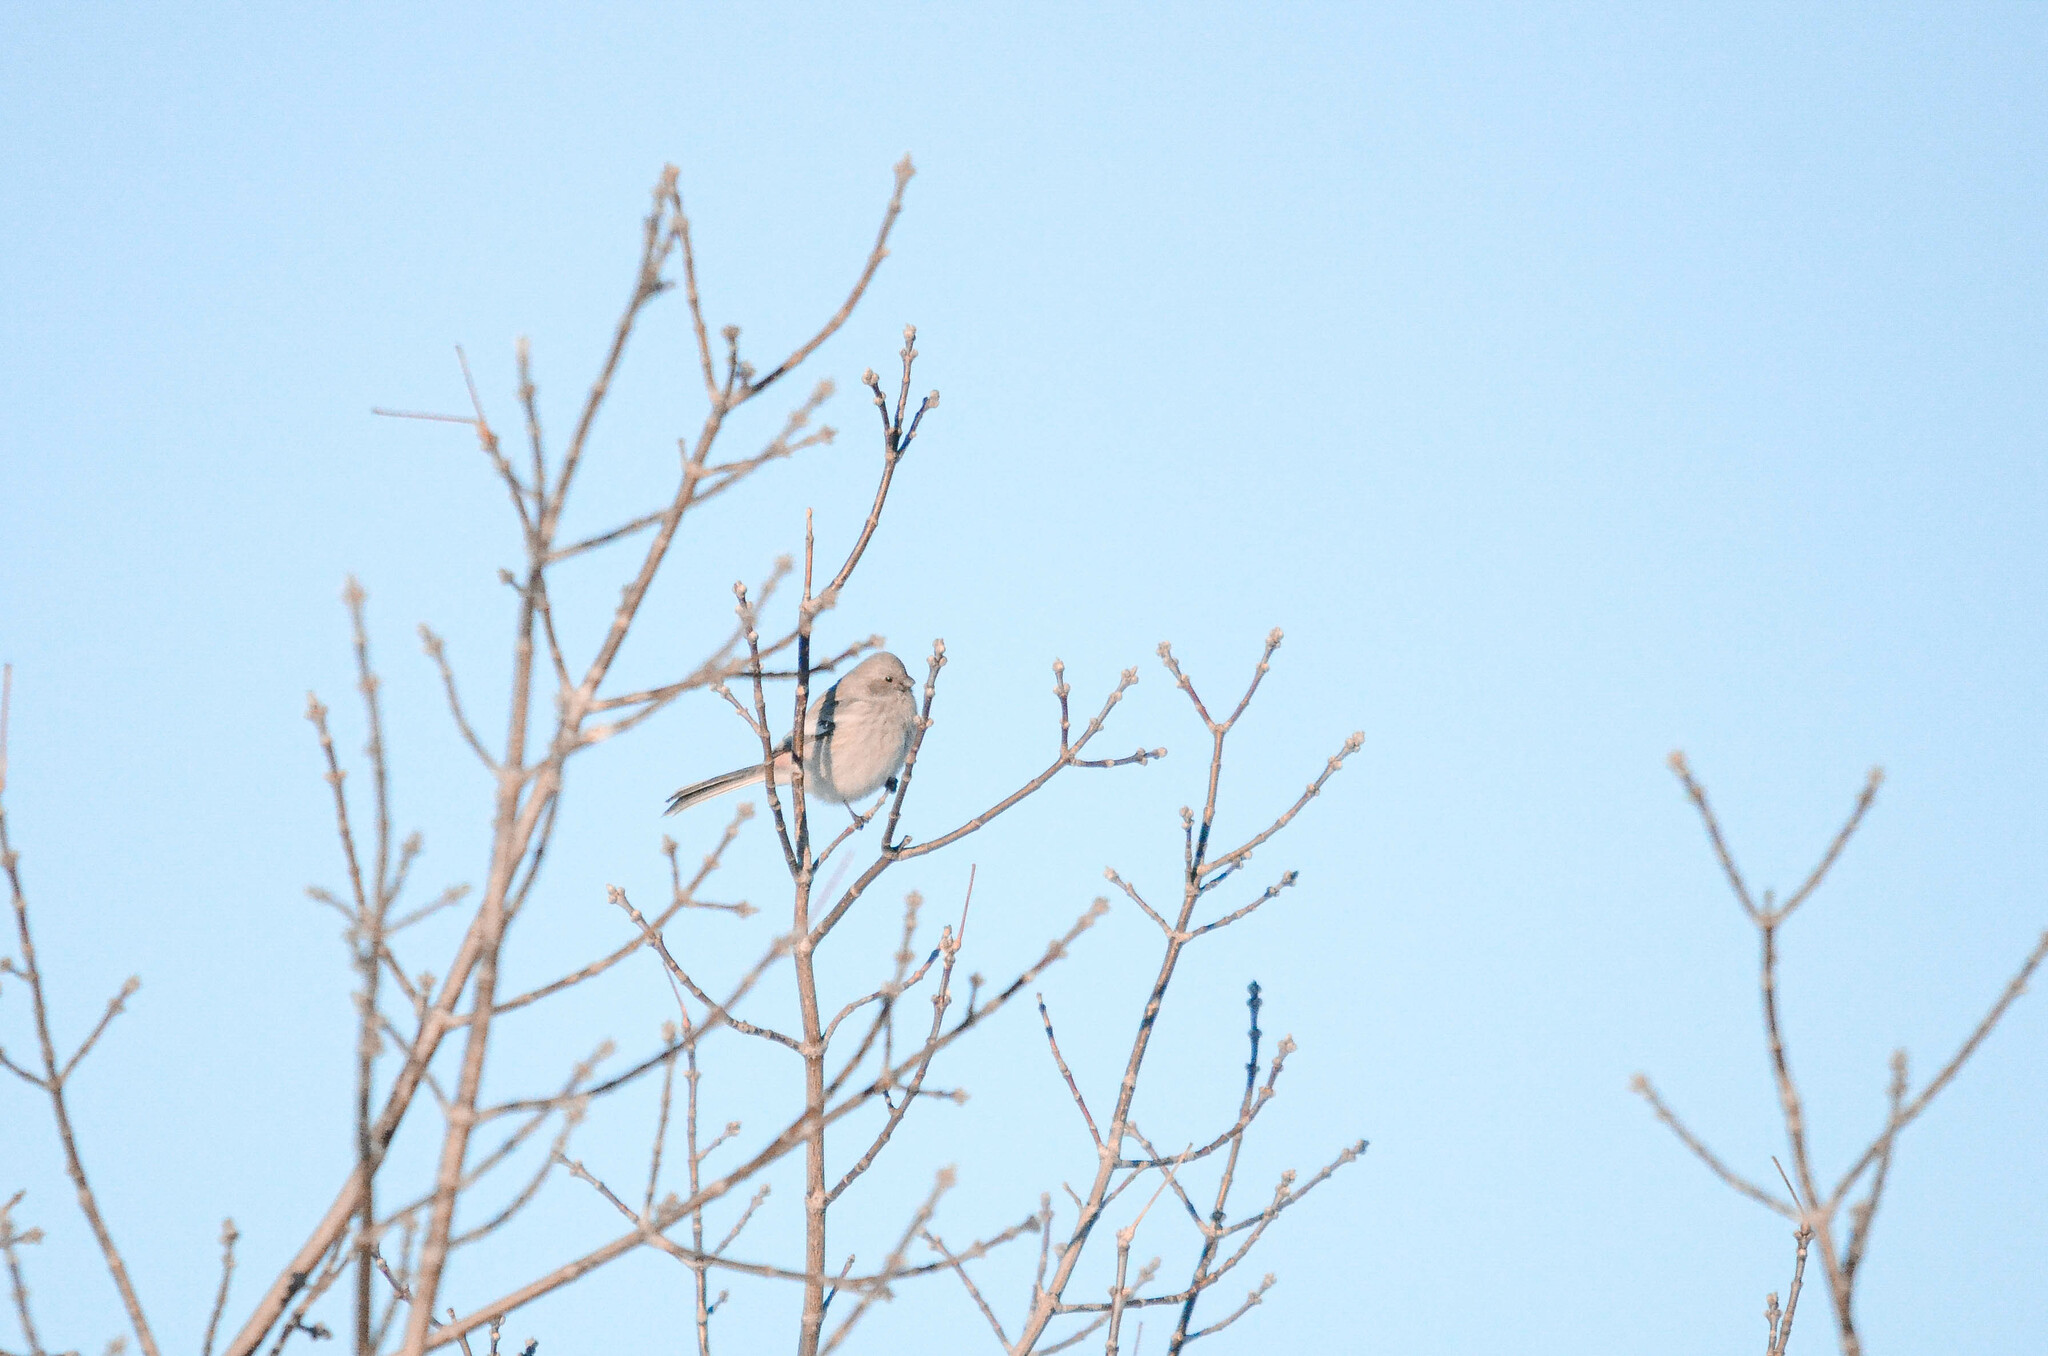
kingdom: Animalia
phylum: Chordata
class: Aves
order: Passeriformes
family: Fringillidae
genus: Carpodacus
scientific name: Carpodacus sibiricus
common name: Long-tailed rosefinch
